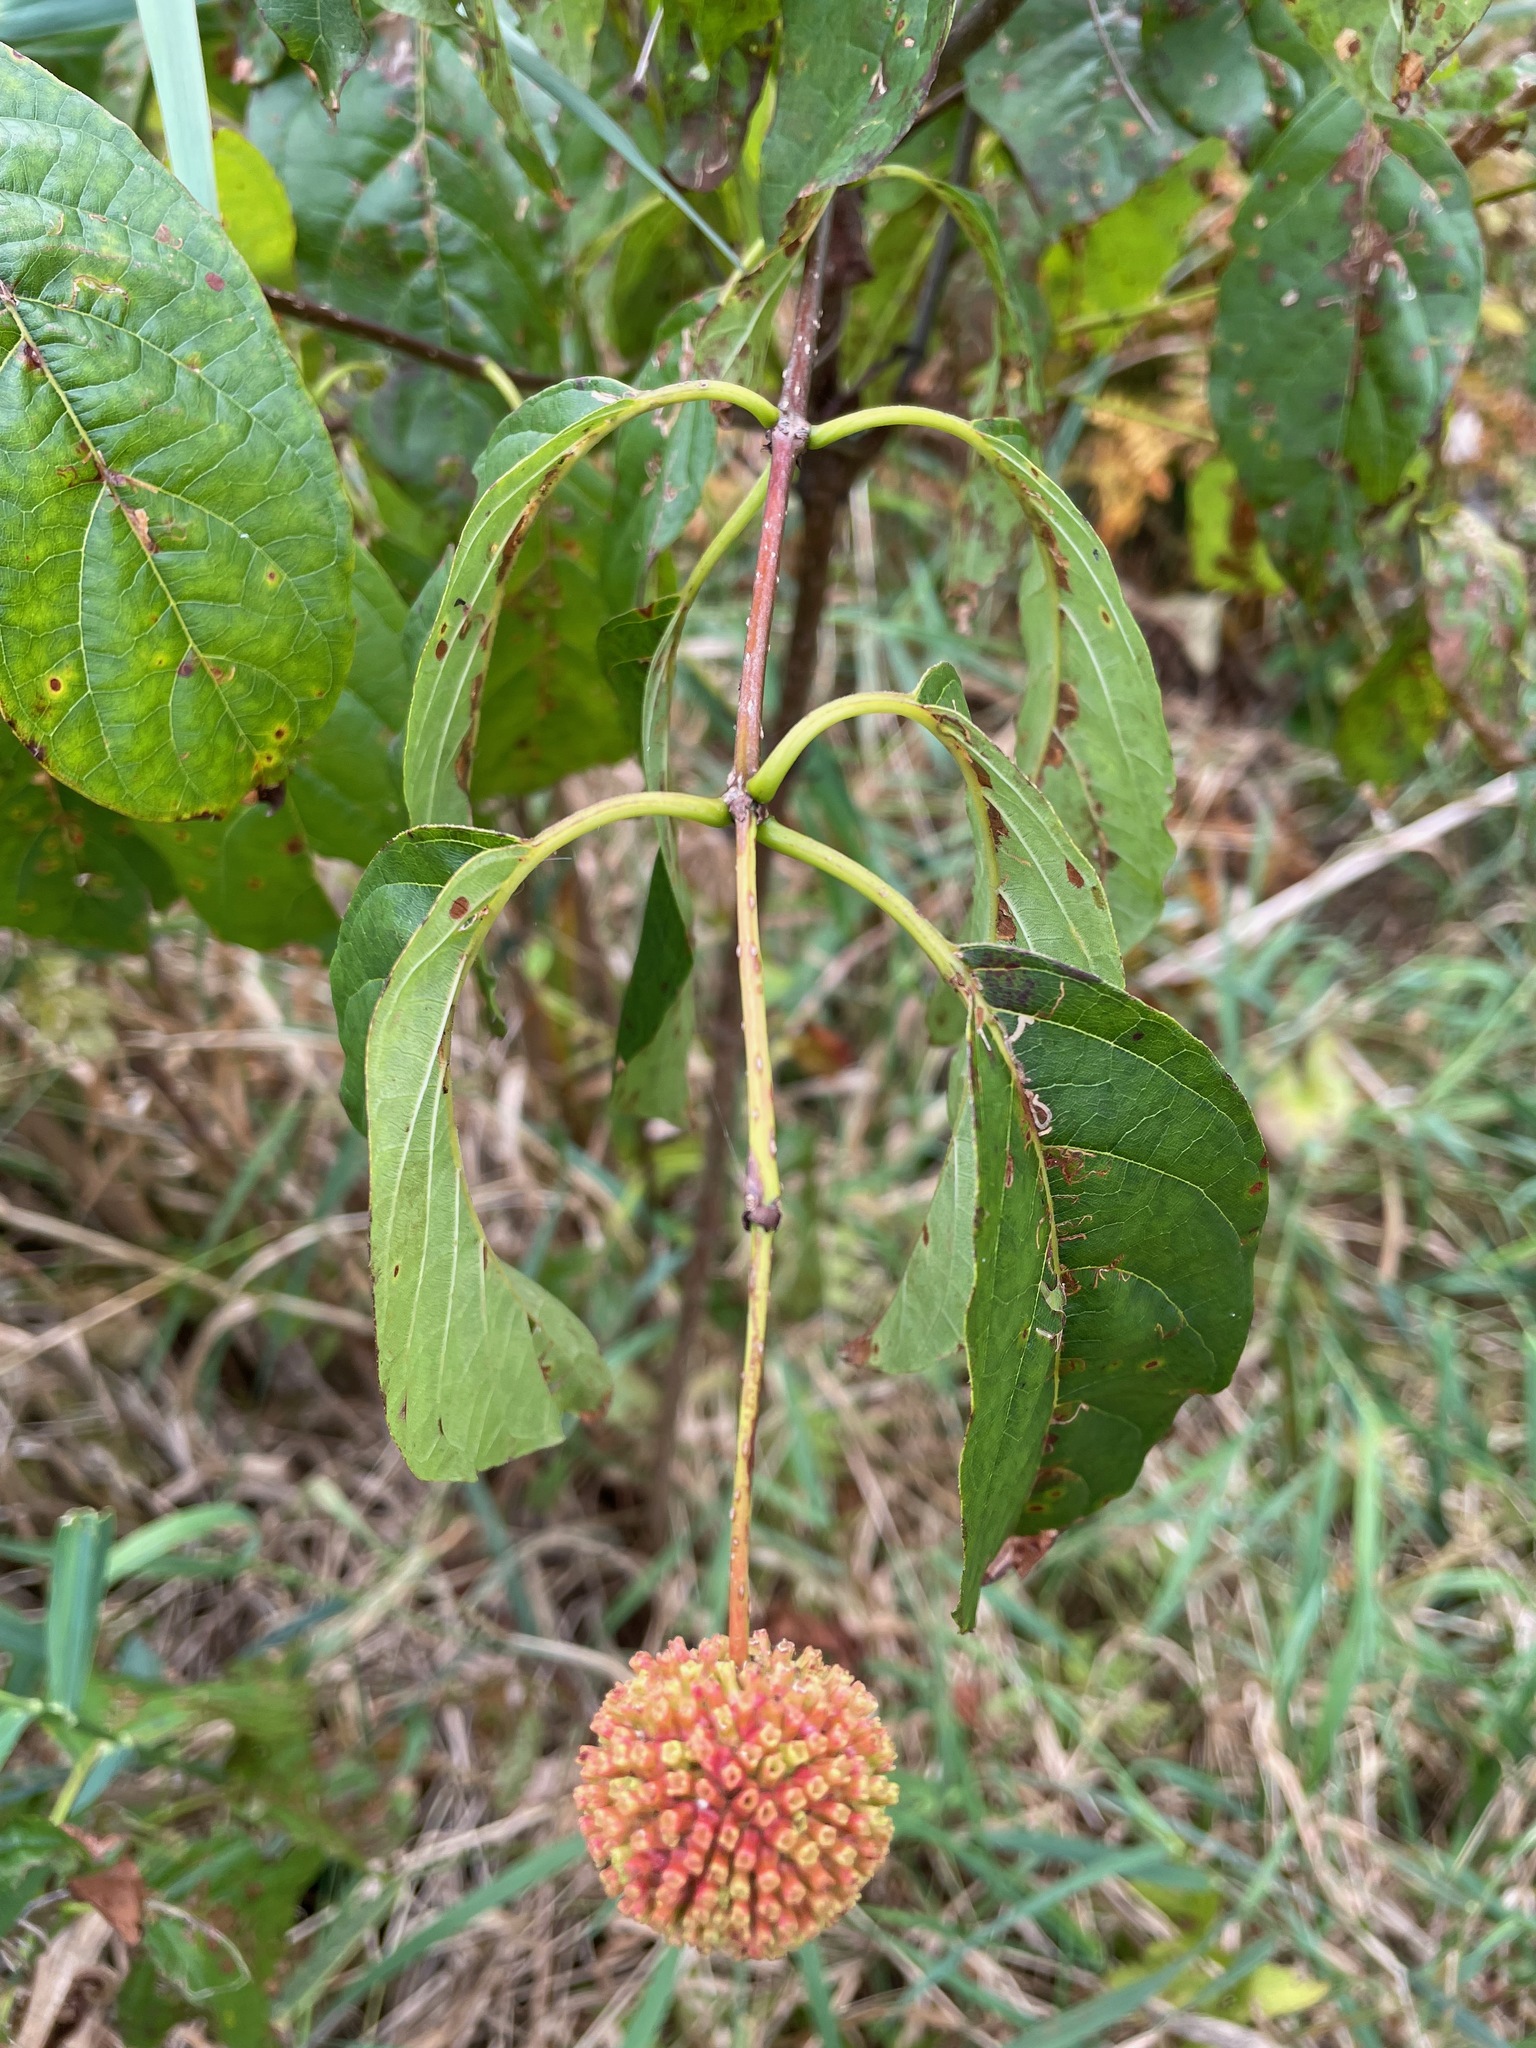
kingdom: Plantae
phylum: Tracheophyta
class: Magnoliopsida
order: Gentianales
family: Rubiaceae
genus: Cephalanthus
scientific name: Cephalanthus occidentalis
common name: Button-willow
